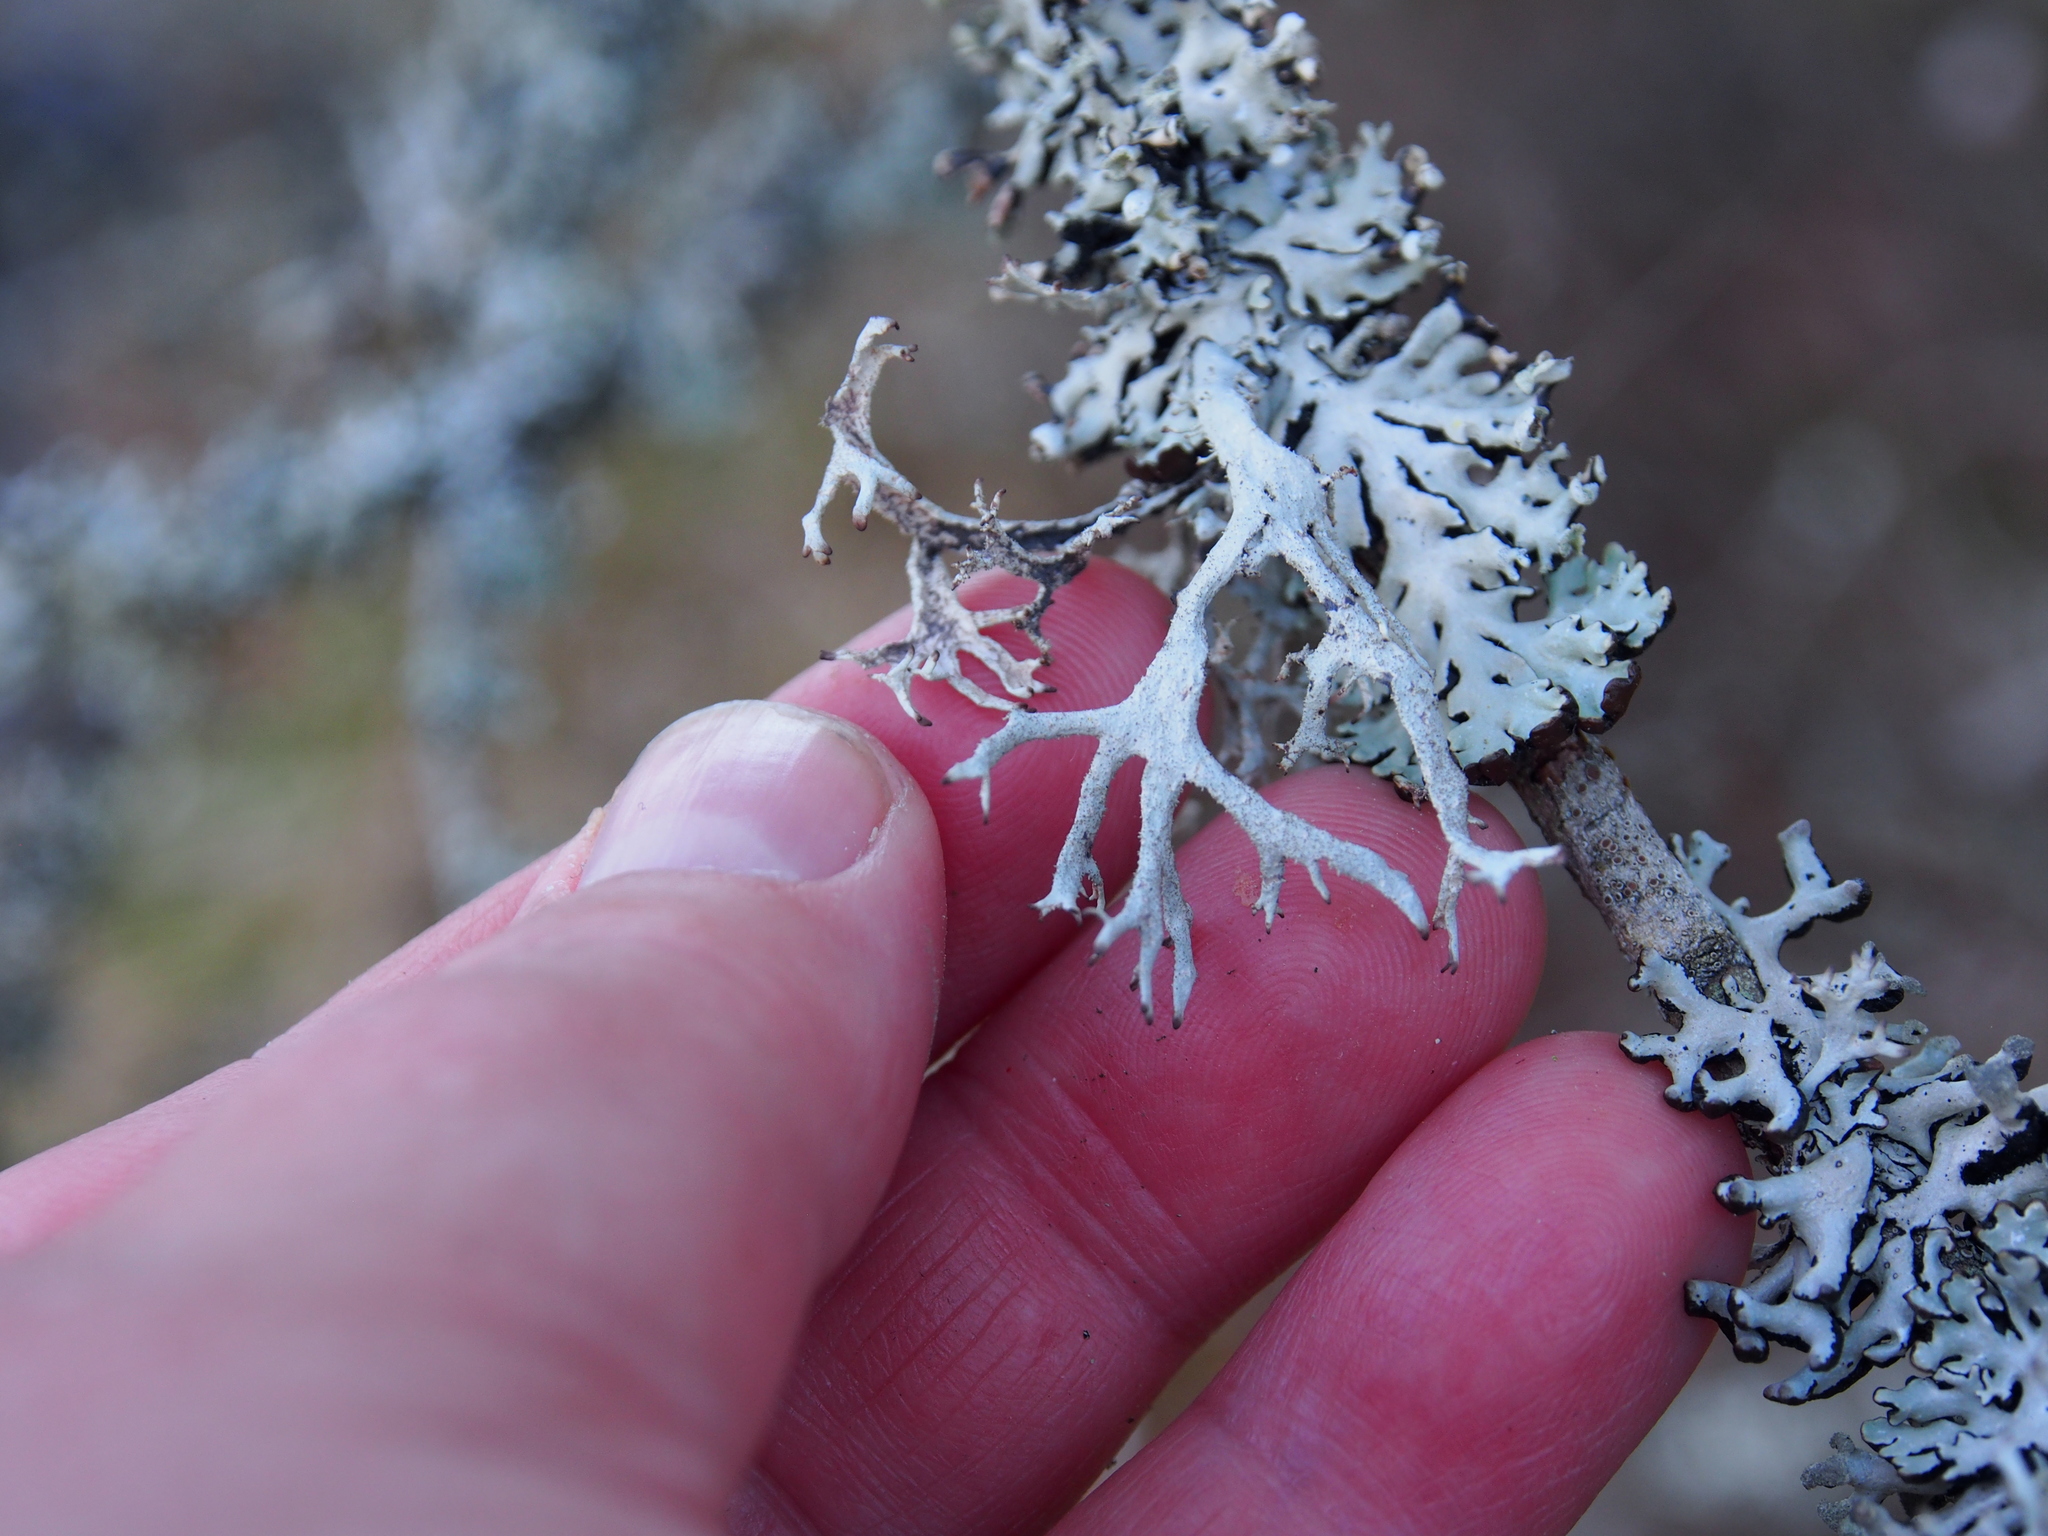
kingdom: Fungi
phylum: Ascomycota
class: Lecanoromycetes
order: Lecanorales
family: Parmeliaceae
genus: Pseudevernia
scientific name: Pseudevernia furfuracea
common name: Tree moss
